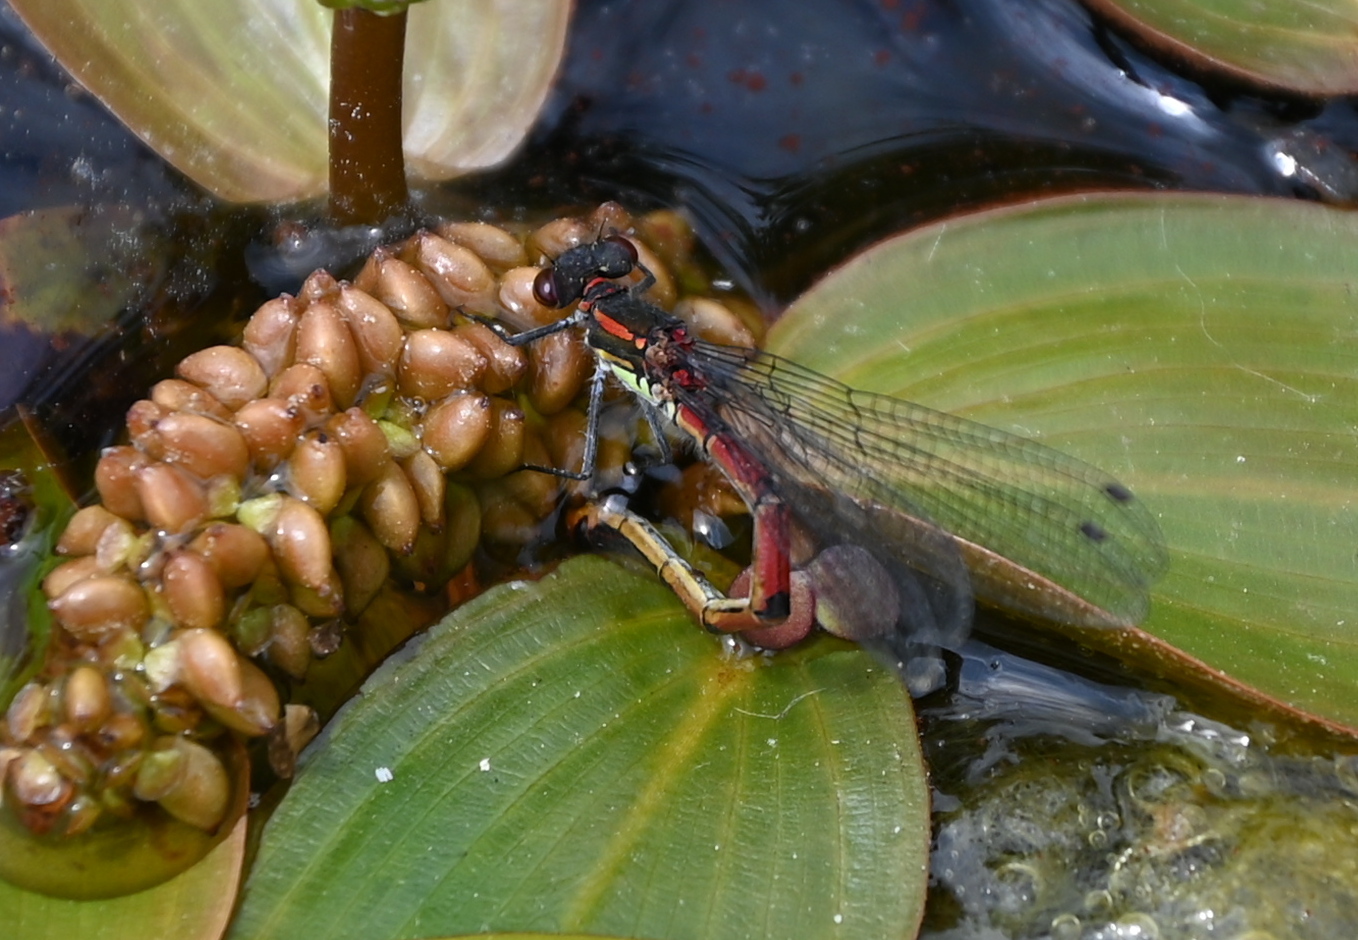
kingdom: Animalia
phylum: Arthropoda
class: Insecta
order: Odonata
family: Coenagrionidae
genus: Pyrrhosoma
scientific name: Pyrrhosoma nymphula
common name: Large red damsel
